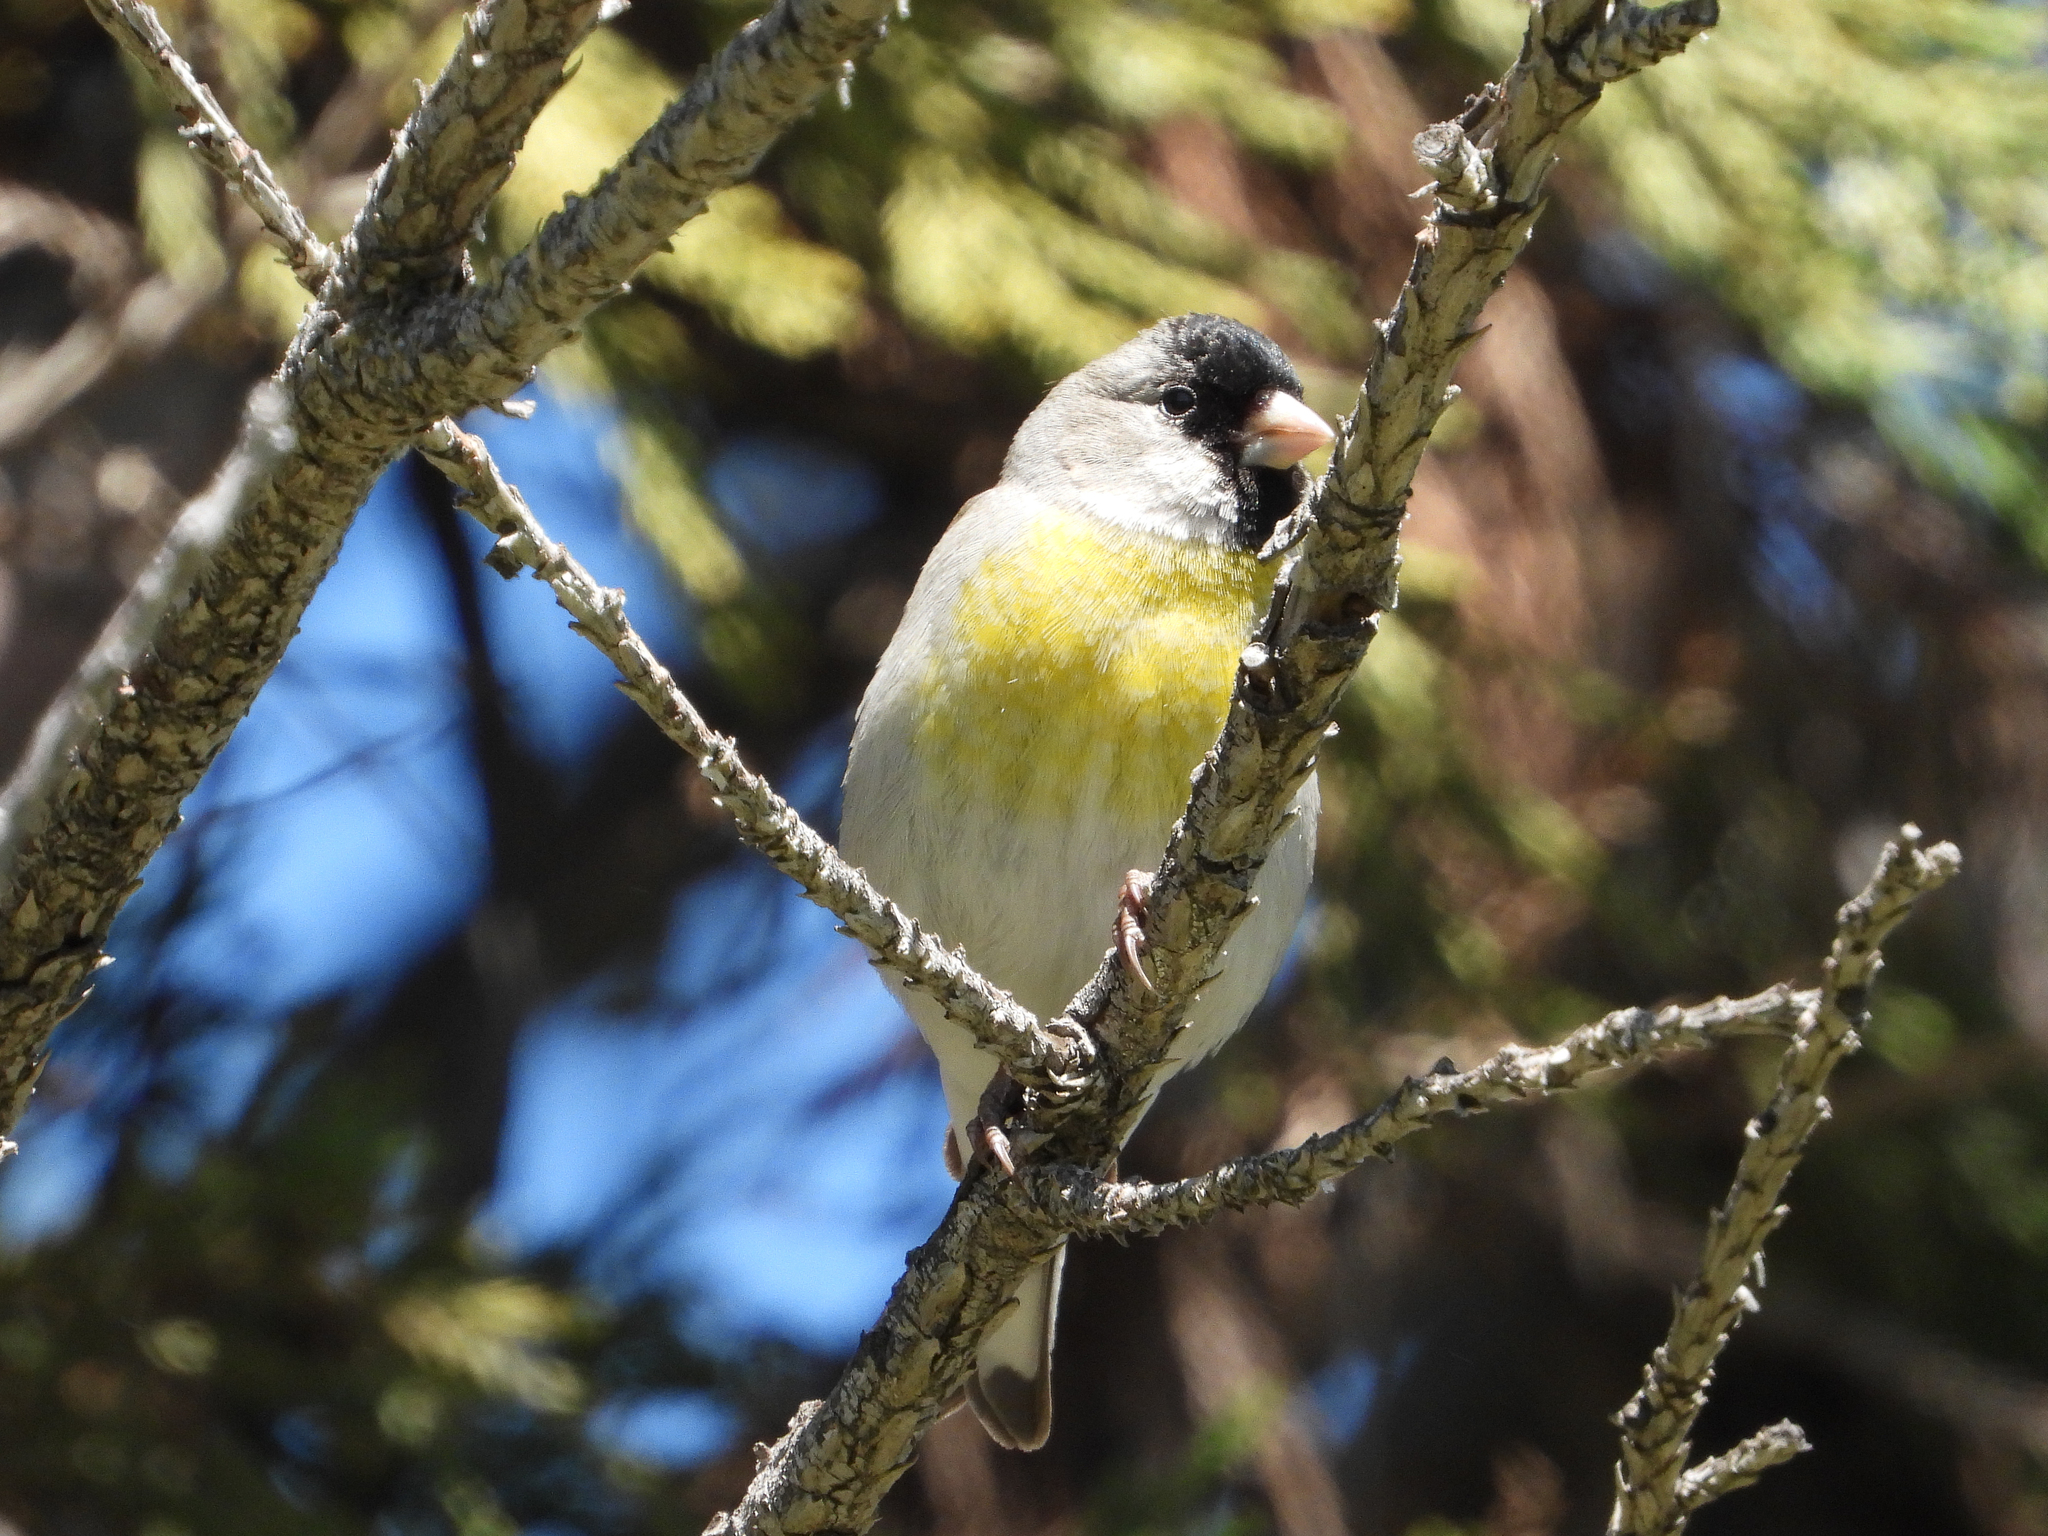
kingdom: Animalia
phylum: Chordata
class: Aves
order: Passeriformes
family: Fringillidae
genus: Spinus
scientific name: Spinus lawrencei
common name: Lawrence's goldfinch
